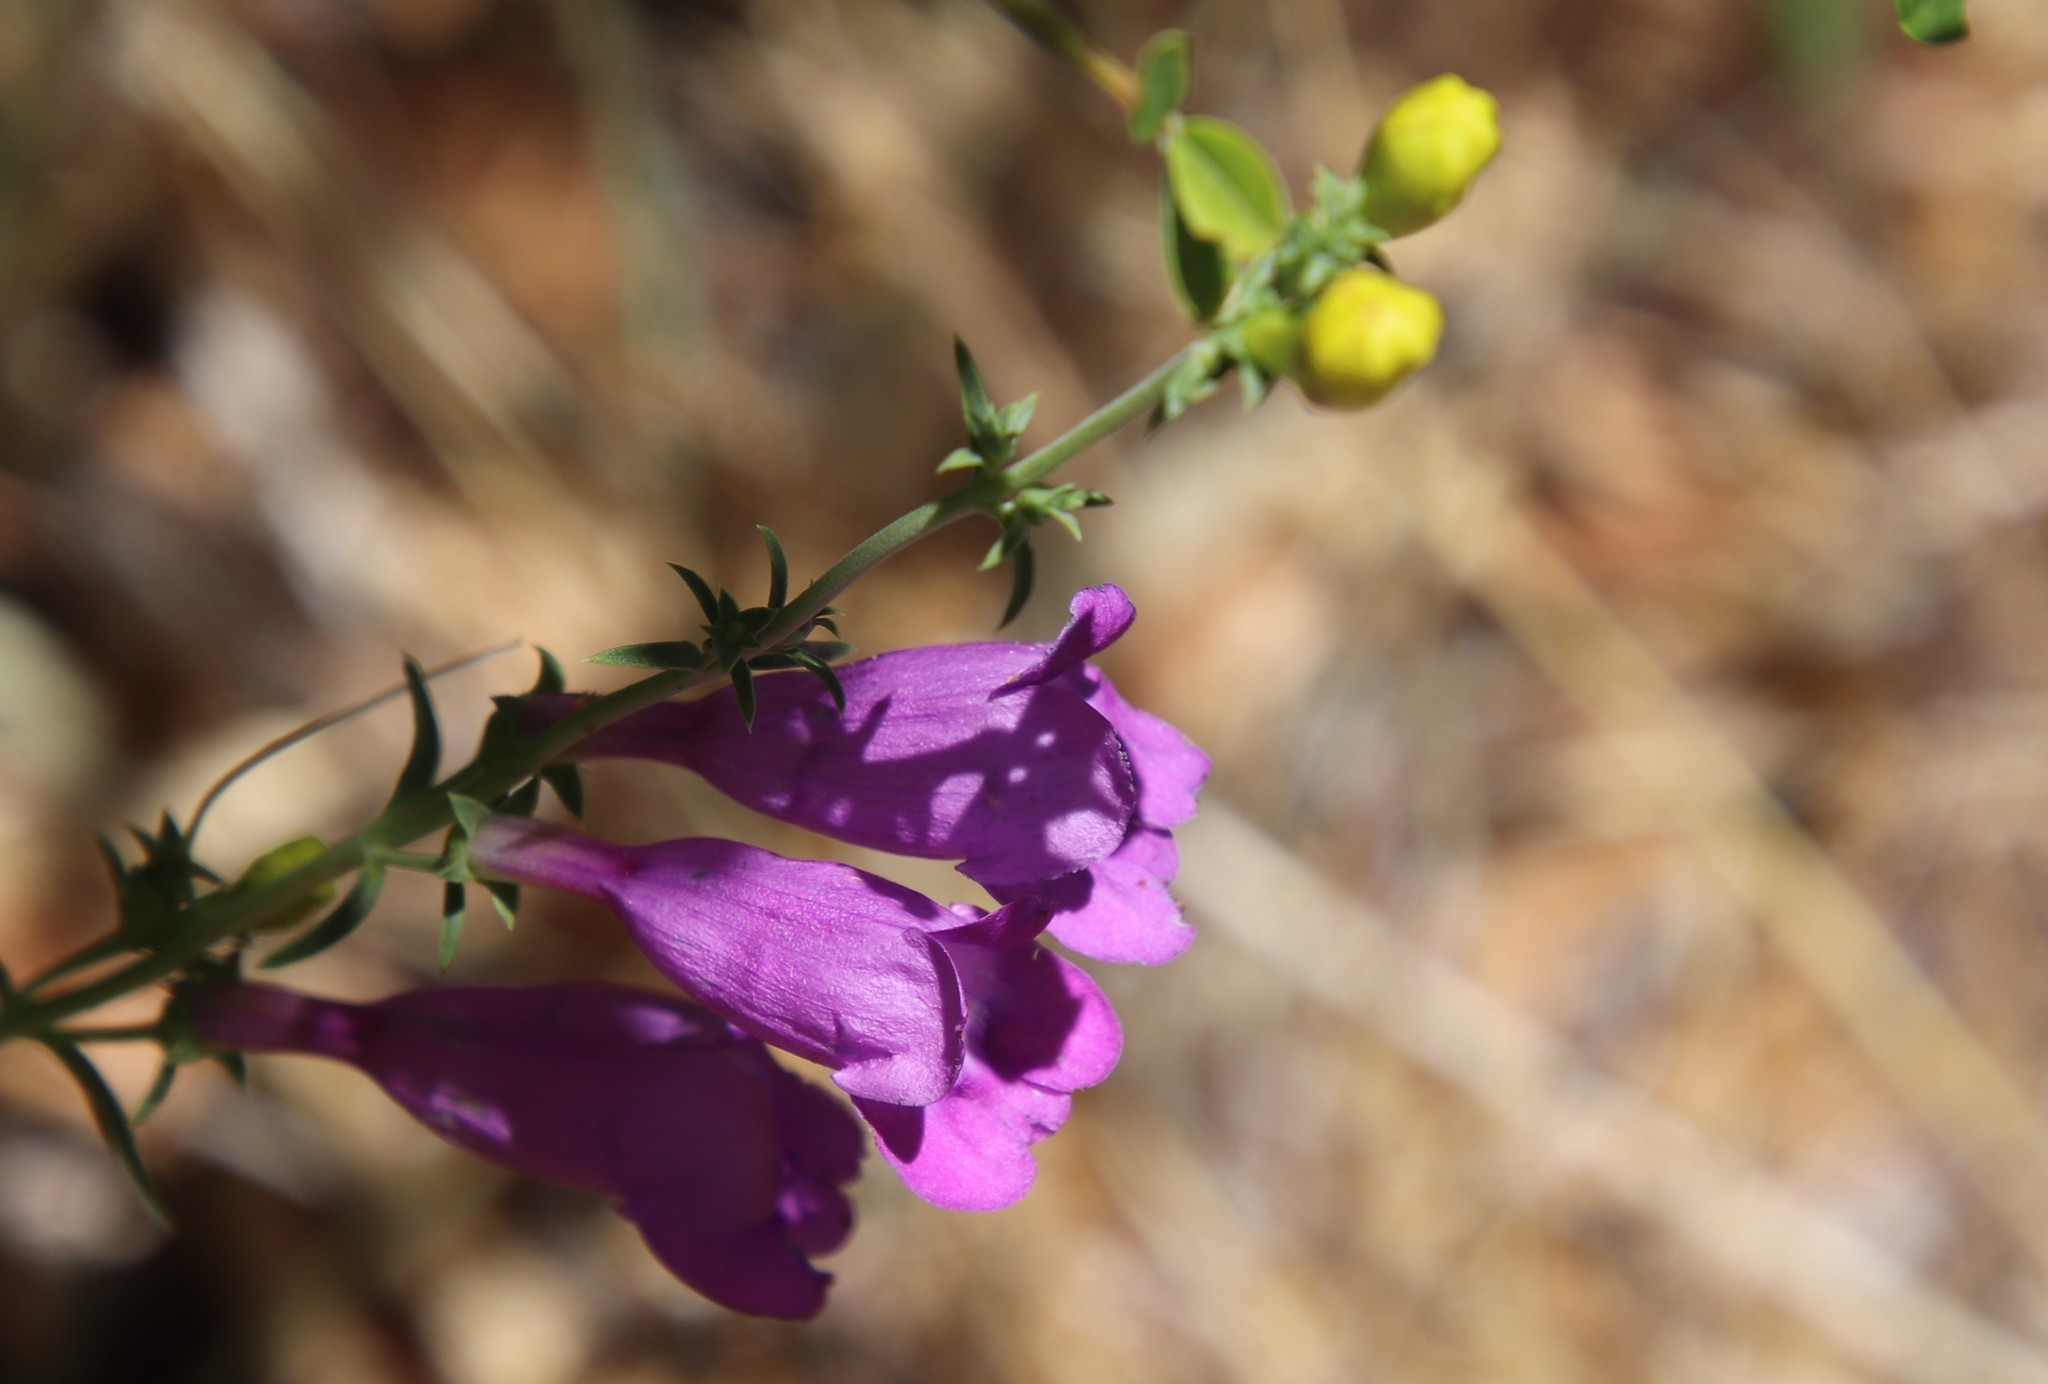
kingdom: Plantae
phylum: Tracheophyta
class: Magnoliopsida
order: Lamiales
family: Plantaginaceae
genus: Penstemon
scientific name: Penstemon heterophyllus
